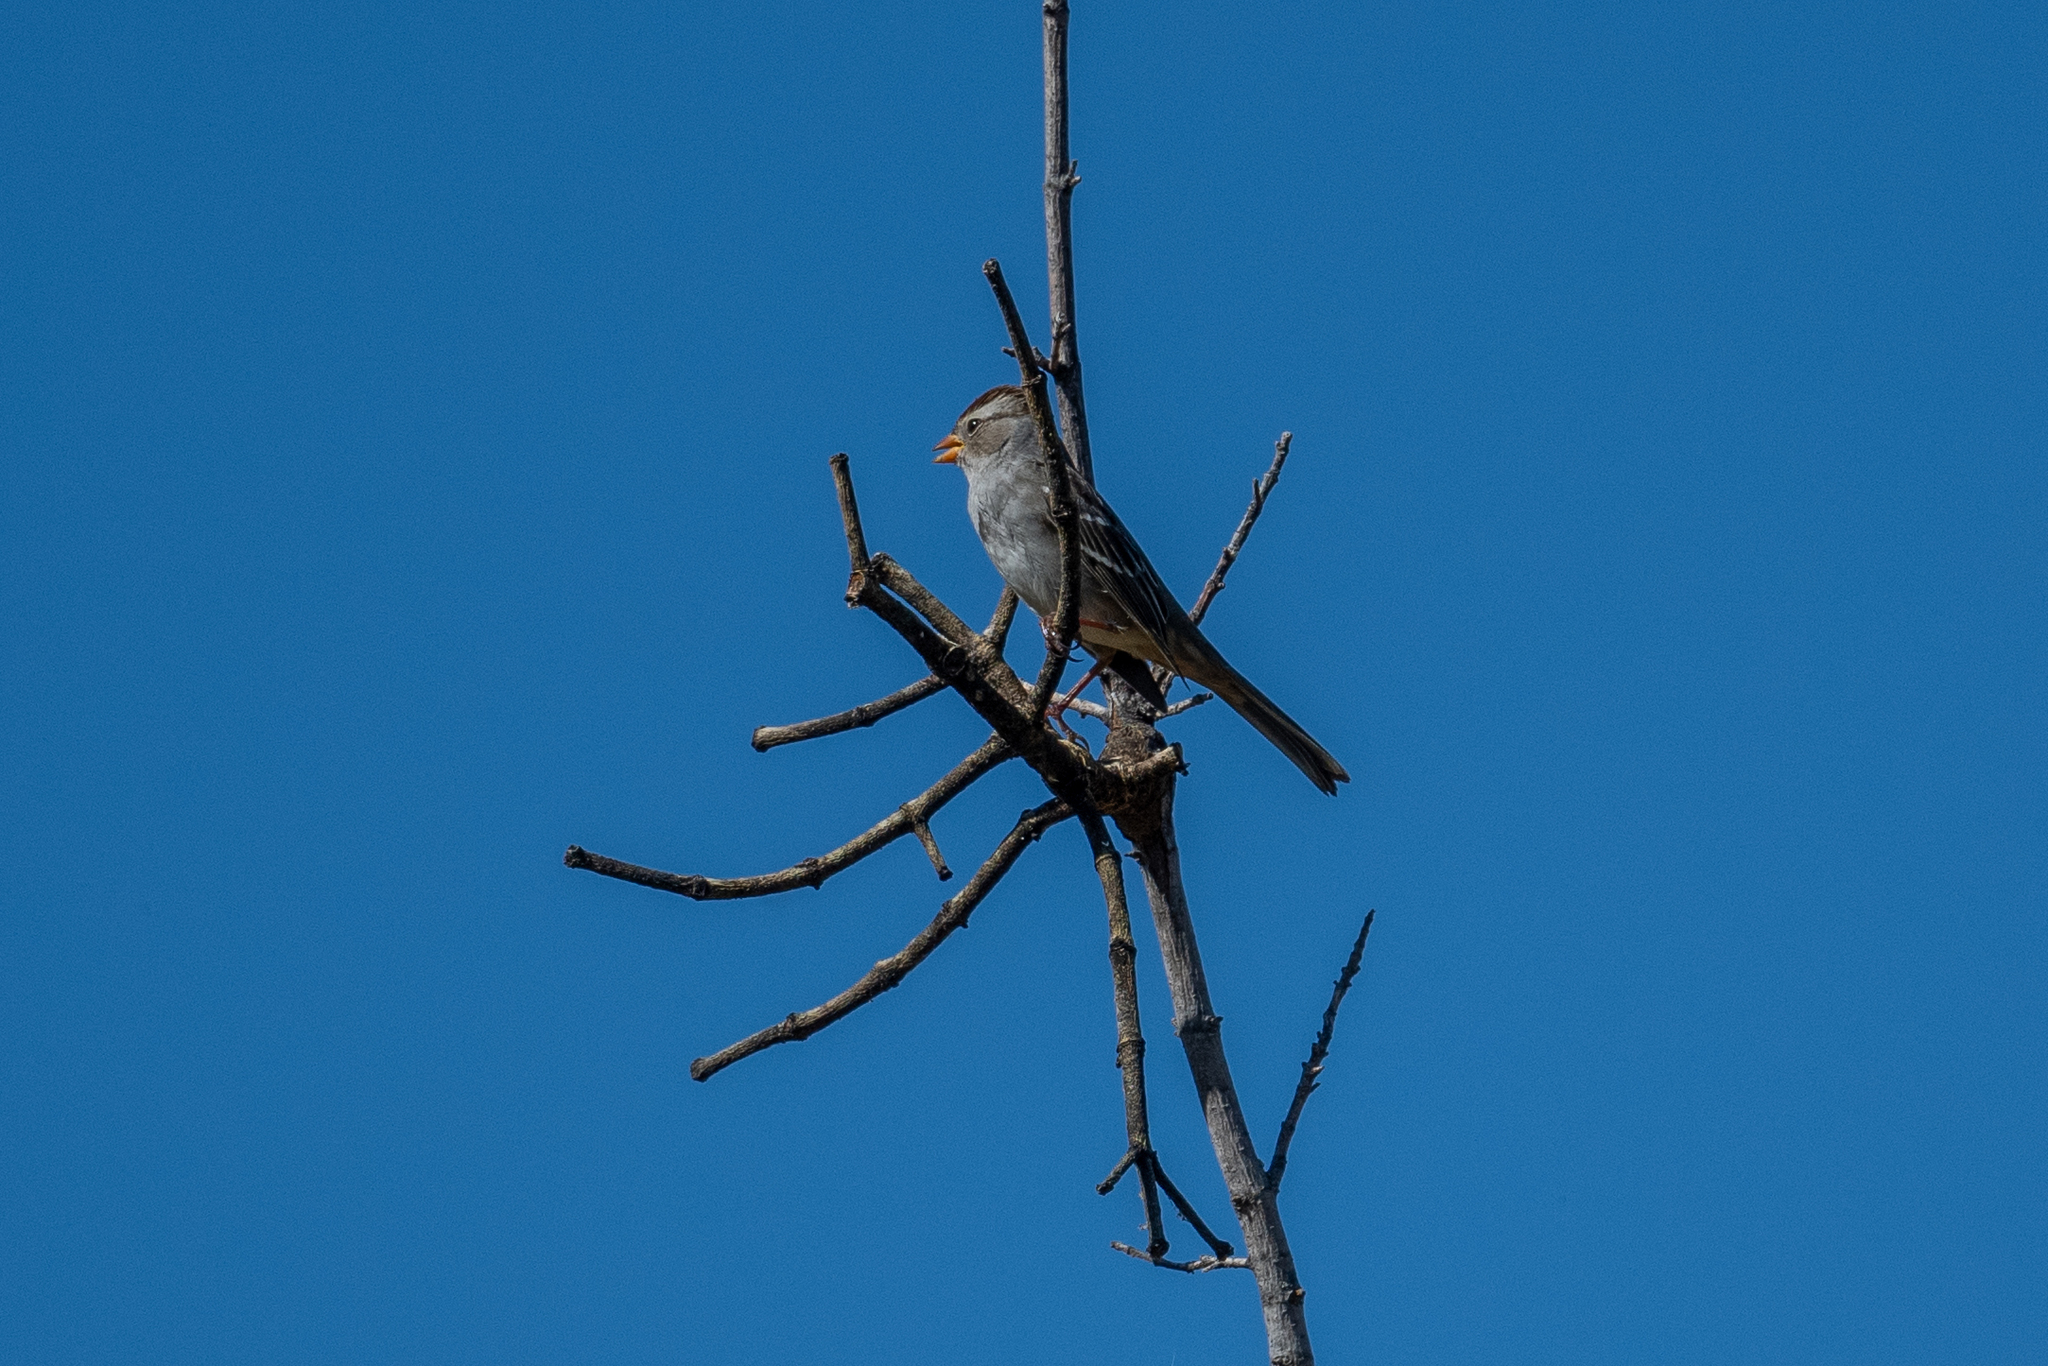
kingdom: Animalia
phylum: Chordata
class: Aves
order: Passeriformes
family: Passerellidae
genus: Zonotrichia
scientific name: Zonotrichia leucophrys
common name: White-crowned sparrow
